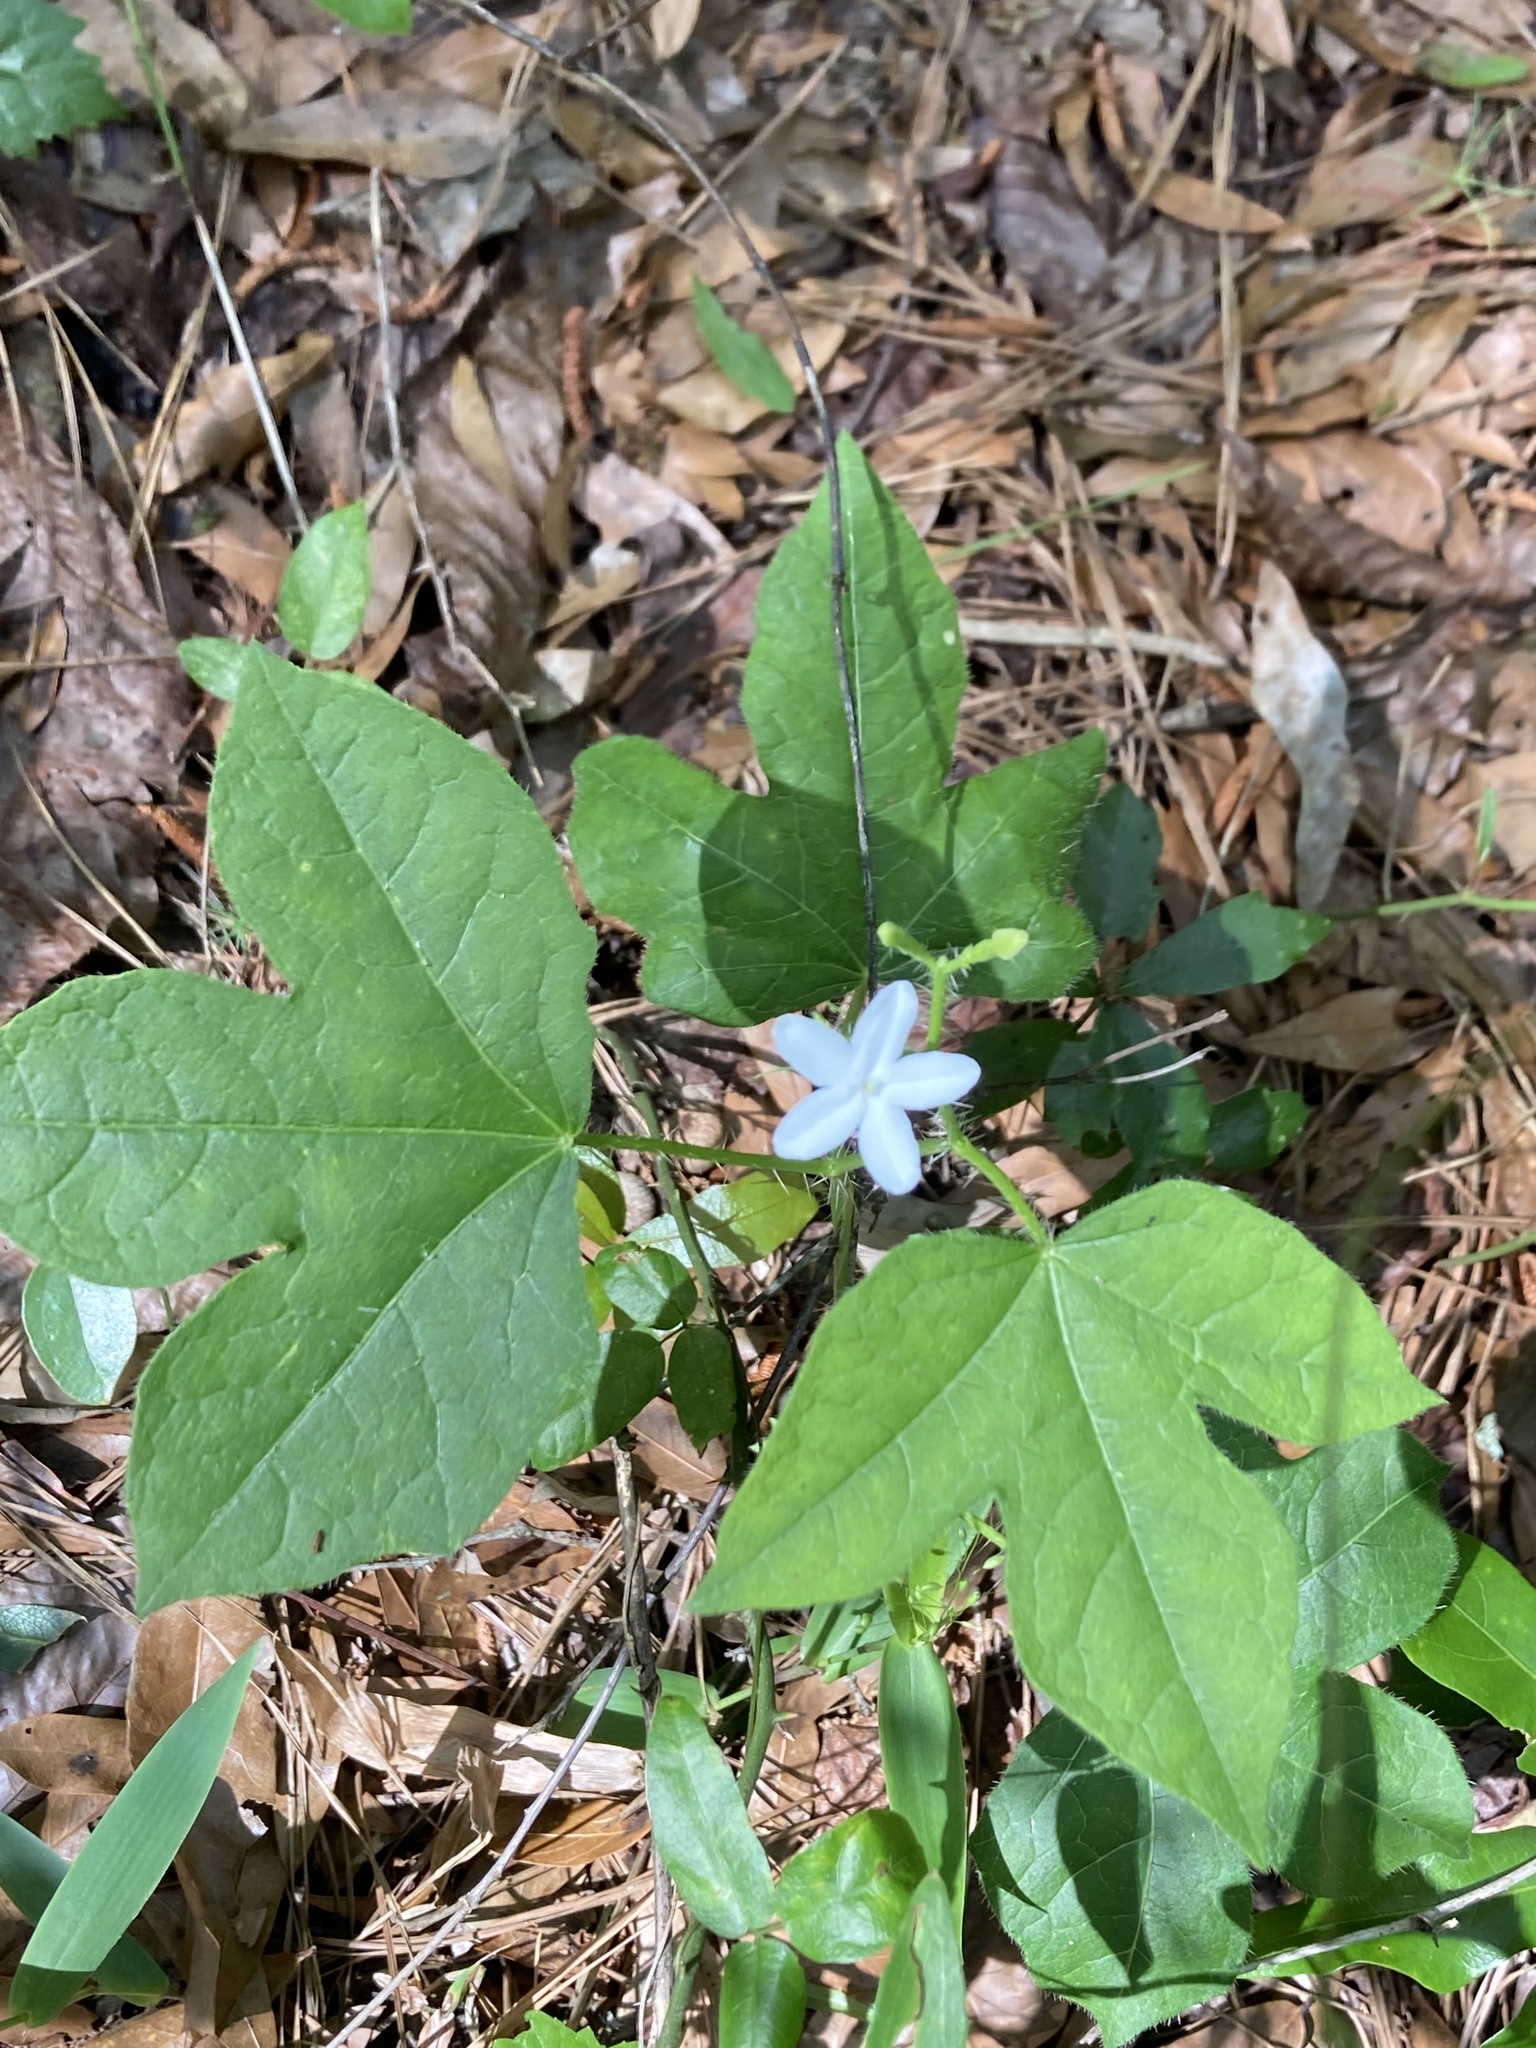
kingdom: Plantae
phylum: Tracheophyta
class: Magnoliopsida
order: Malpighiales
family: Euphorbiaceae
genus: Cnidoscolus
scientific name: Cnidoscolus stimulosus
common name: Bull-nettle
